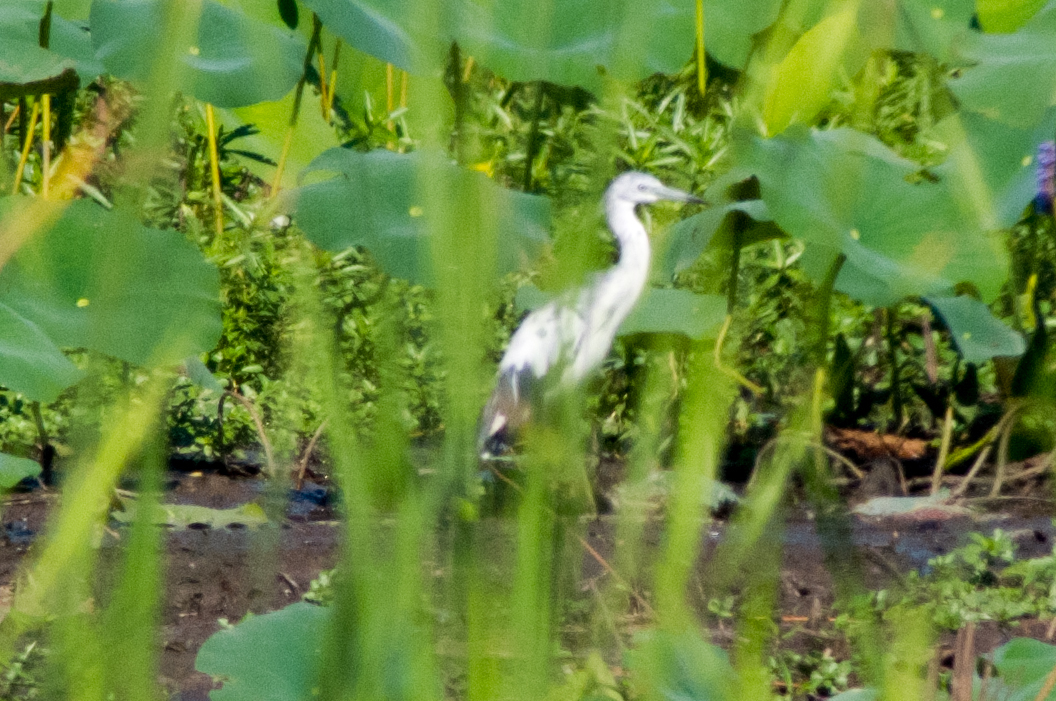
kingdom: Animalia
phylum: Chordata
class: Aves
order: Pelecaniformes
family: Ardeidae
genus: Egretta
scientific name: Egretta caerulea
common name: Little blue heron
